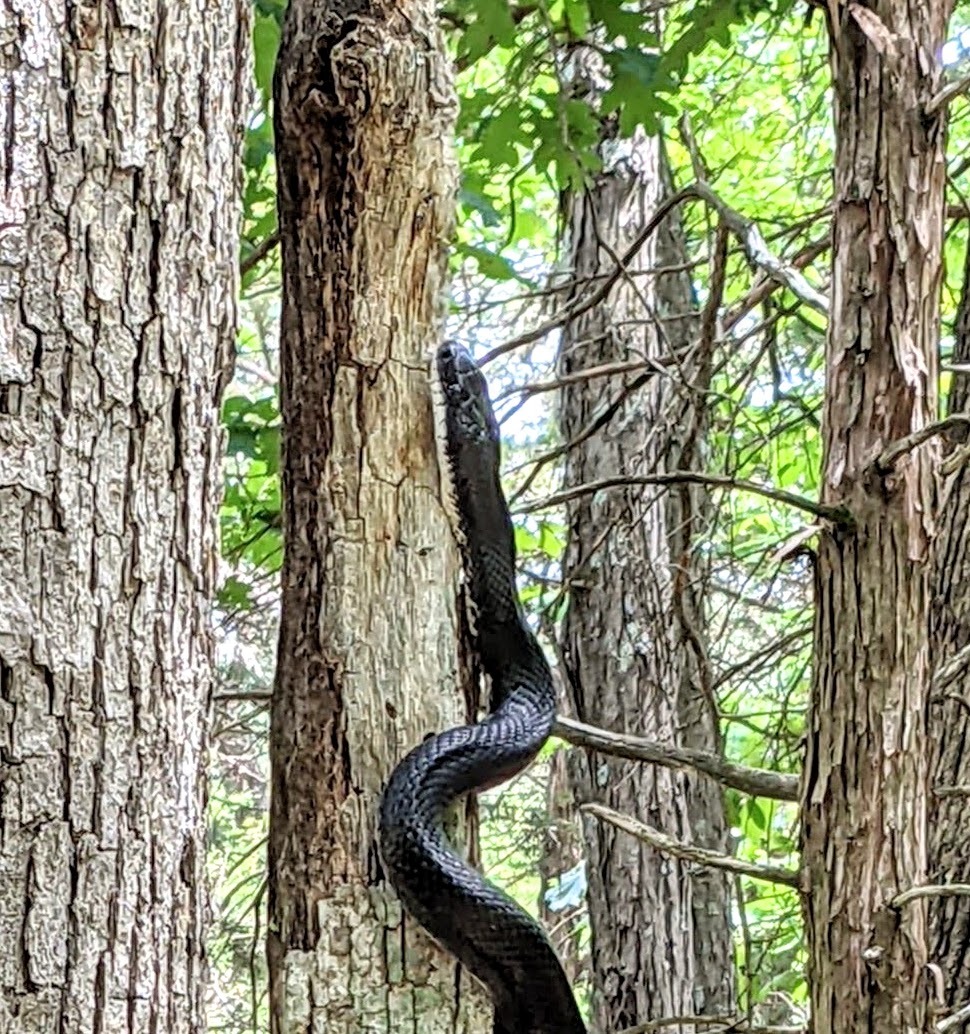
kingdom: Animalia
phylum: Chordata
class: Squamata
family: Colubridae
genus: Pantherophis
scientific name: Pantherophis obsoletus
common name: Black rat snake
